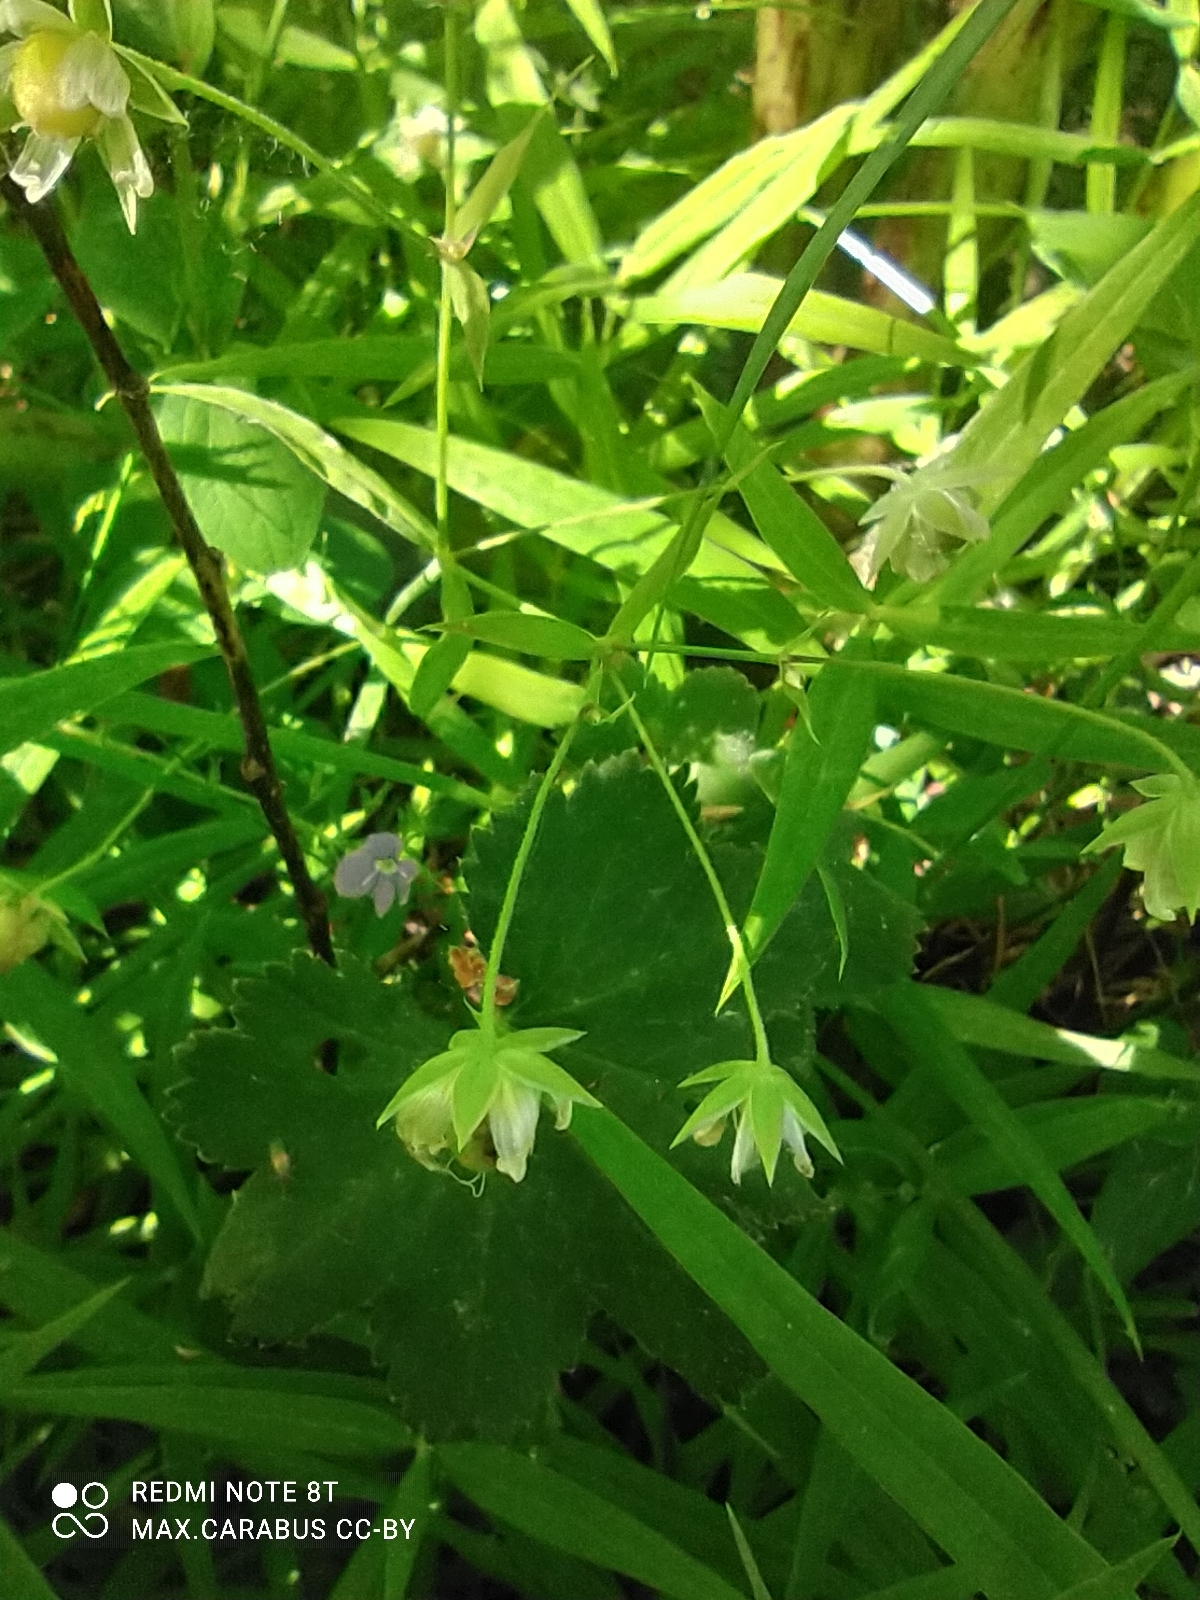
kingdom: Plantae
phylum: Tracheophyta
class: Magnoliopsida
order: Caryophyllales
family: Caryophyllaceae
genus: Rabelera
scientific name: Rabelera holostea
